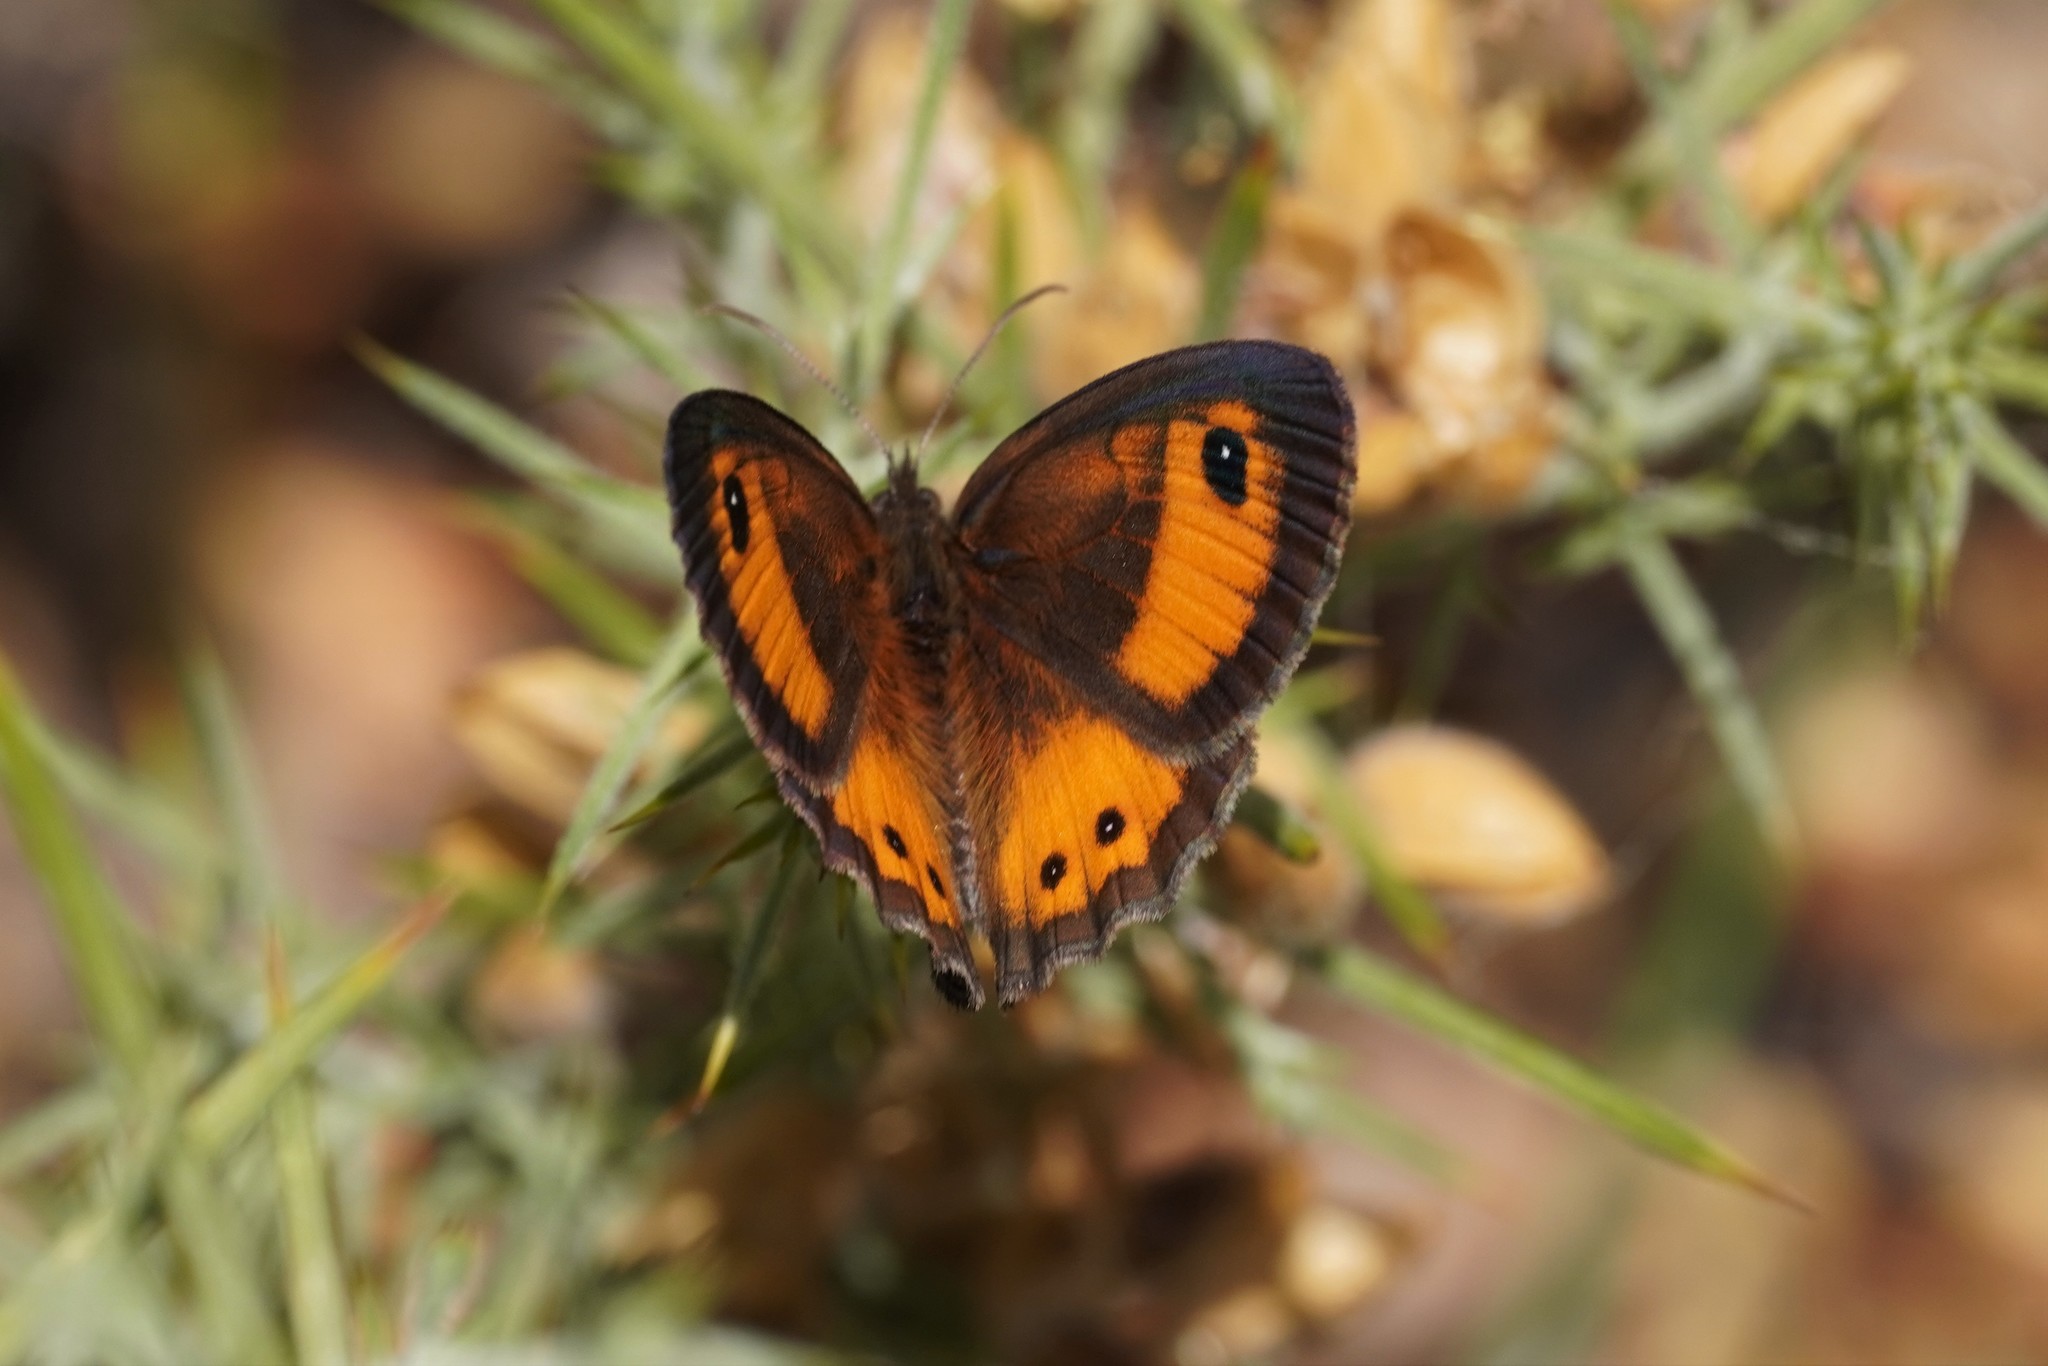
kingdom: Animalia
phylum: Arthropoda
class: Insecta
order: Lepidoptera
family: Nymphalidae
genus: Pyronia
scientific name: Pyronia bathseba
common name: Spanish gatekeeper
